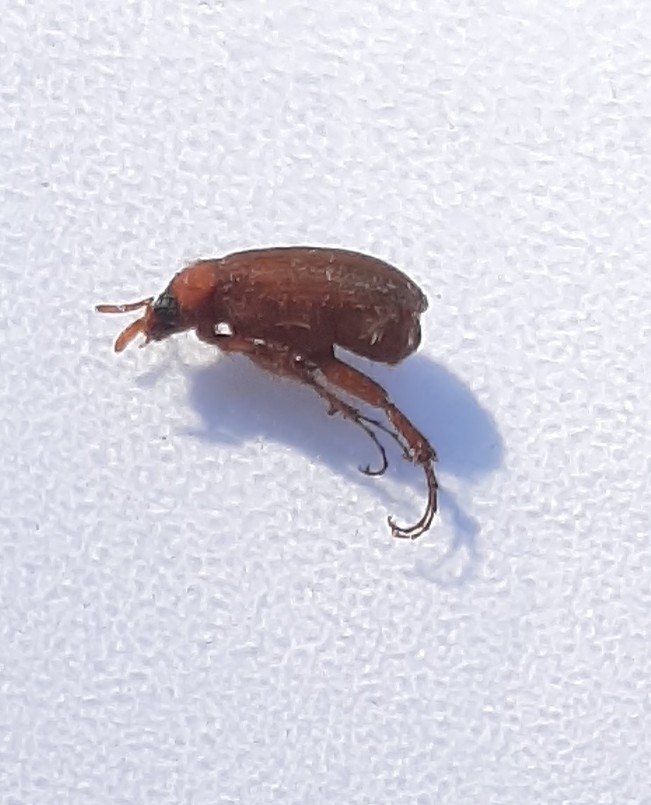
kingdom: Animalia
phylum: Arthropoda
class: Insecta
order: Coleoptera
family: Scarabaeidae
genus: Serica
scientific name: Serica brunnea
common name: Brown chafer
